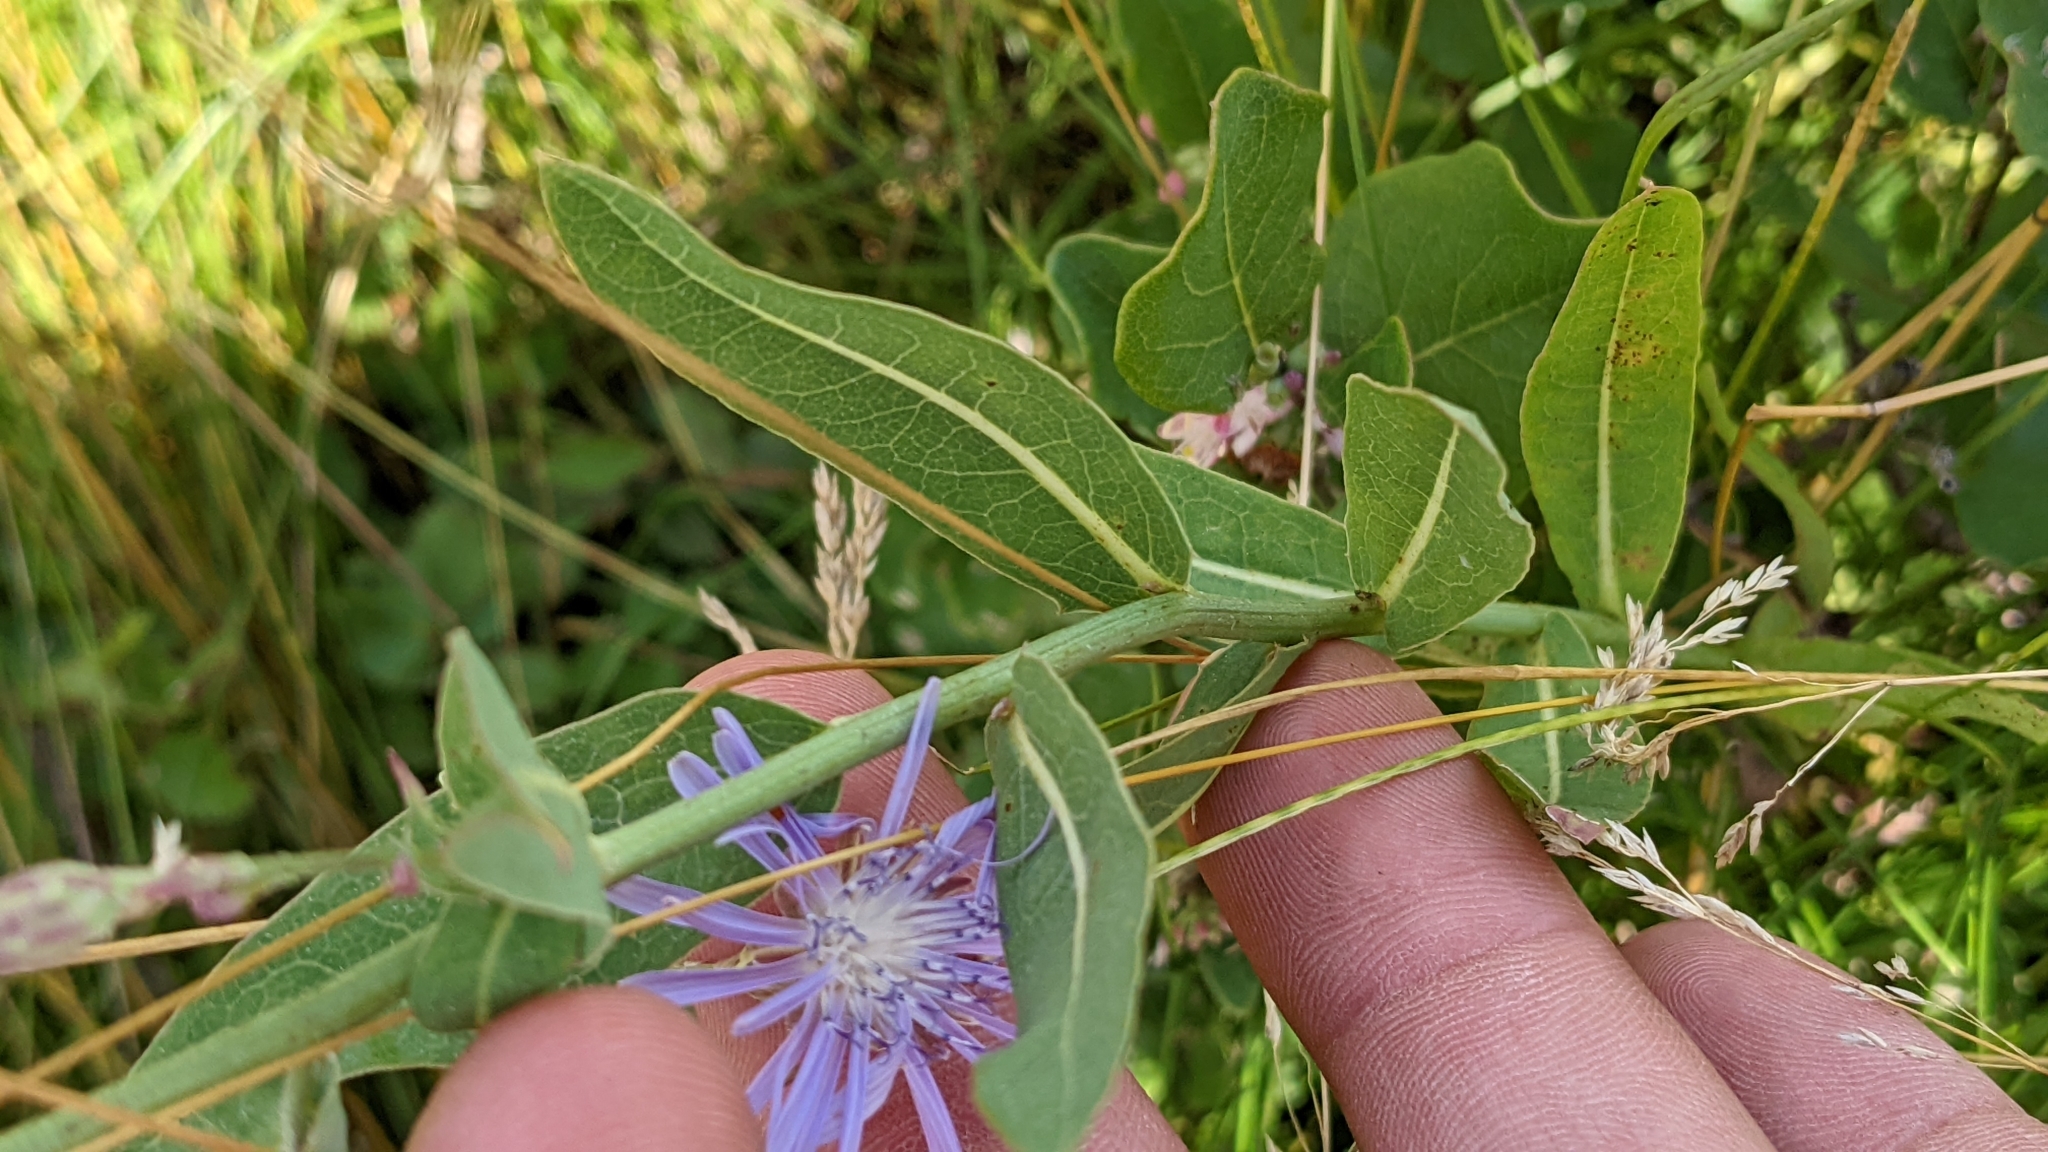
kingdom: Plantae
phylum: Tracheophyta
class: Magnoliopsida
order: Asterales
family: Asteraceae
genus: Lactuca
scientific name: Lactuca tatarica
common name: Blue lettuce
